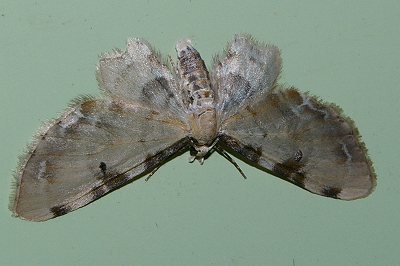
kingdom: Animalia
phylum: Arthropoda
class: Insecta
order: Lepidoptera
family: Geometridae
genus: Brabira
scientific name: Brabira artemidora
